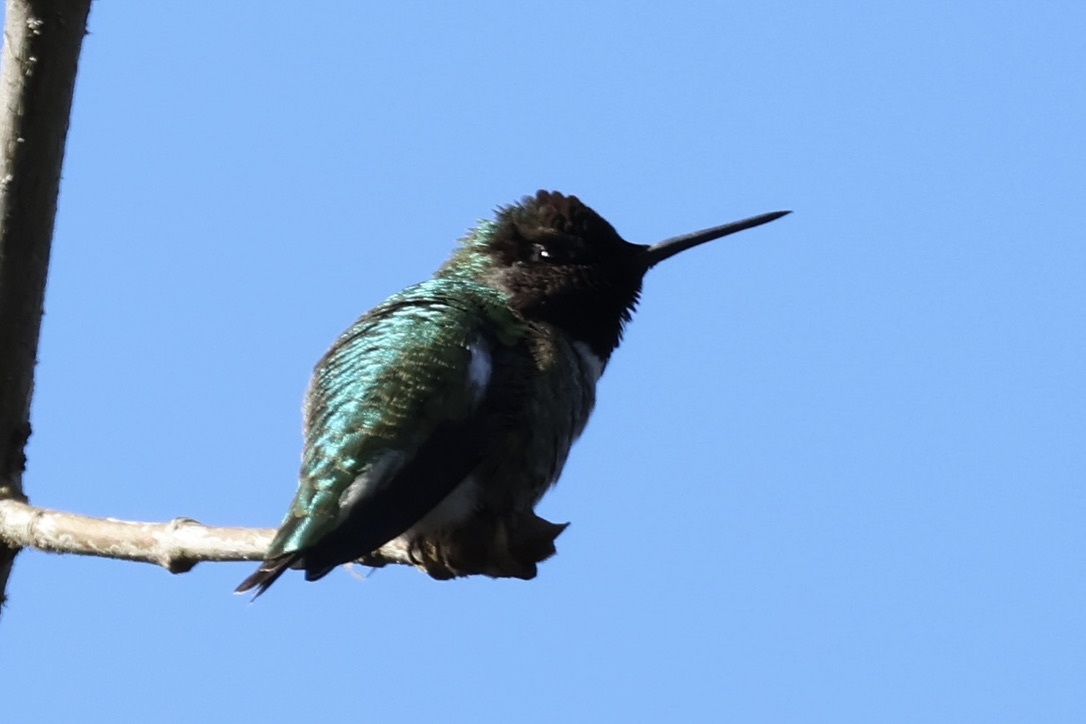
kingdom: Animalia
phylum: Chordata
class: Aves
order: Apodiformes
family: Trochilidae
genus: Calypte
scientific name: Calypte anna
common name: Anna's hummingbird
